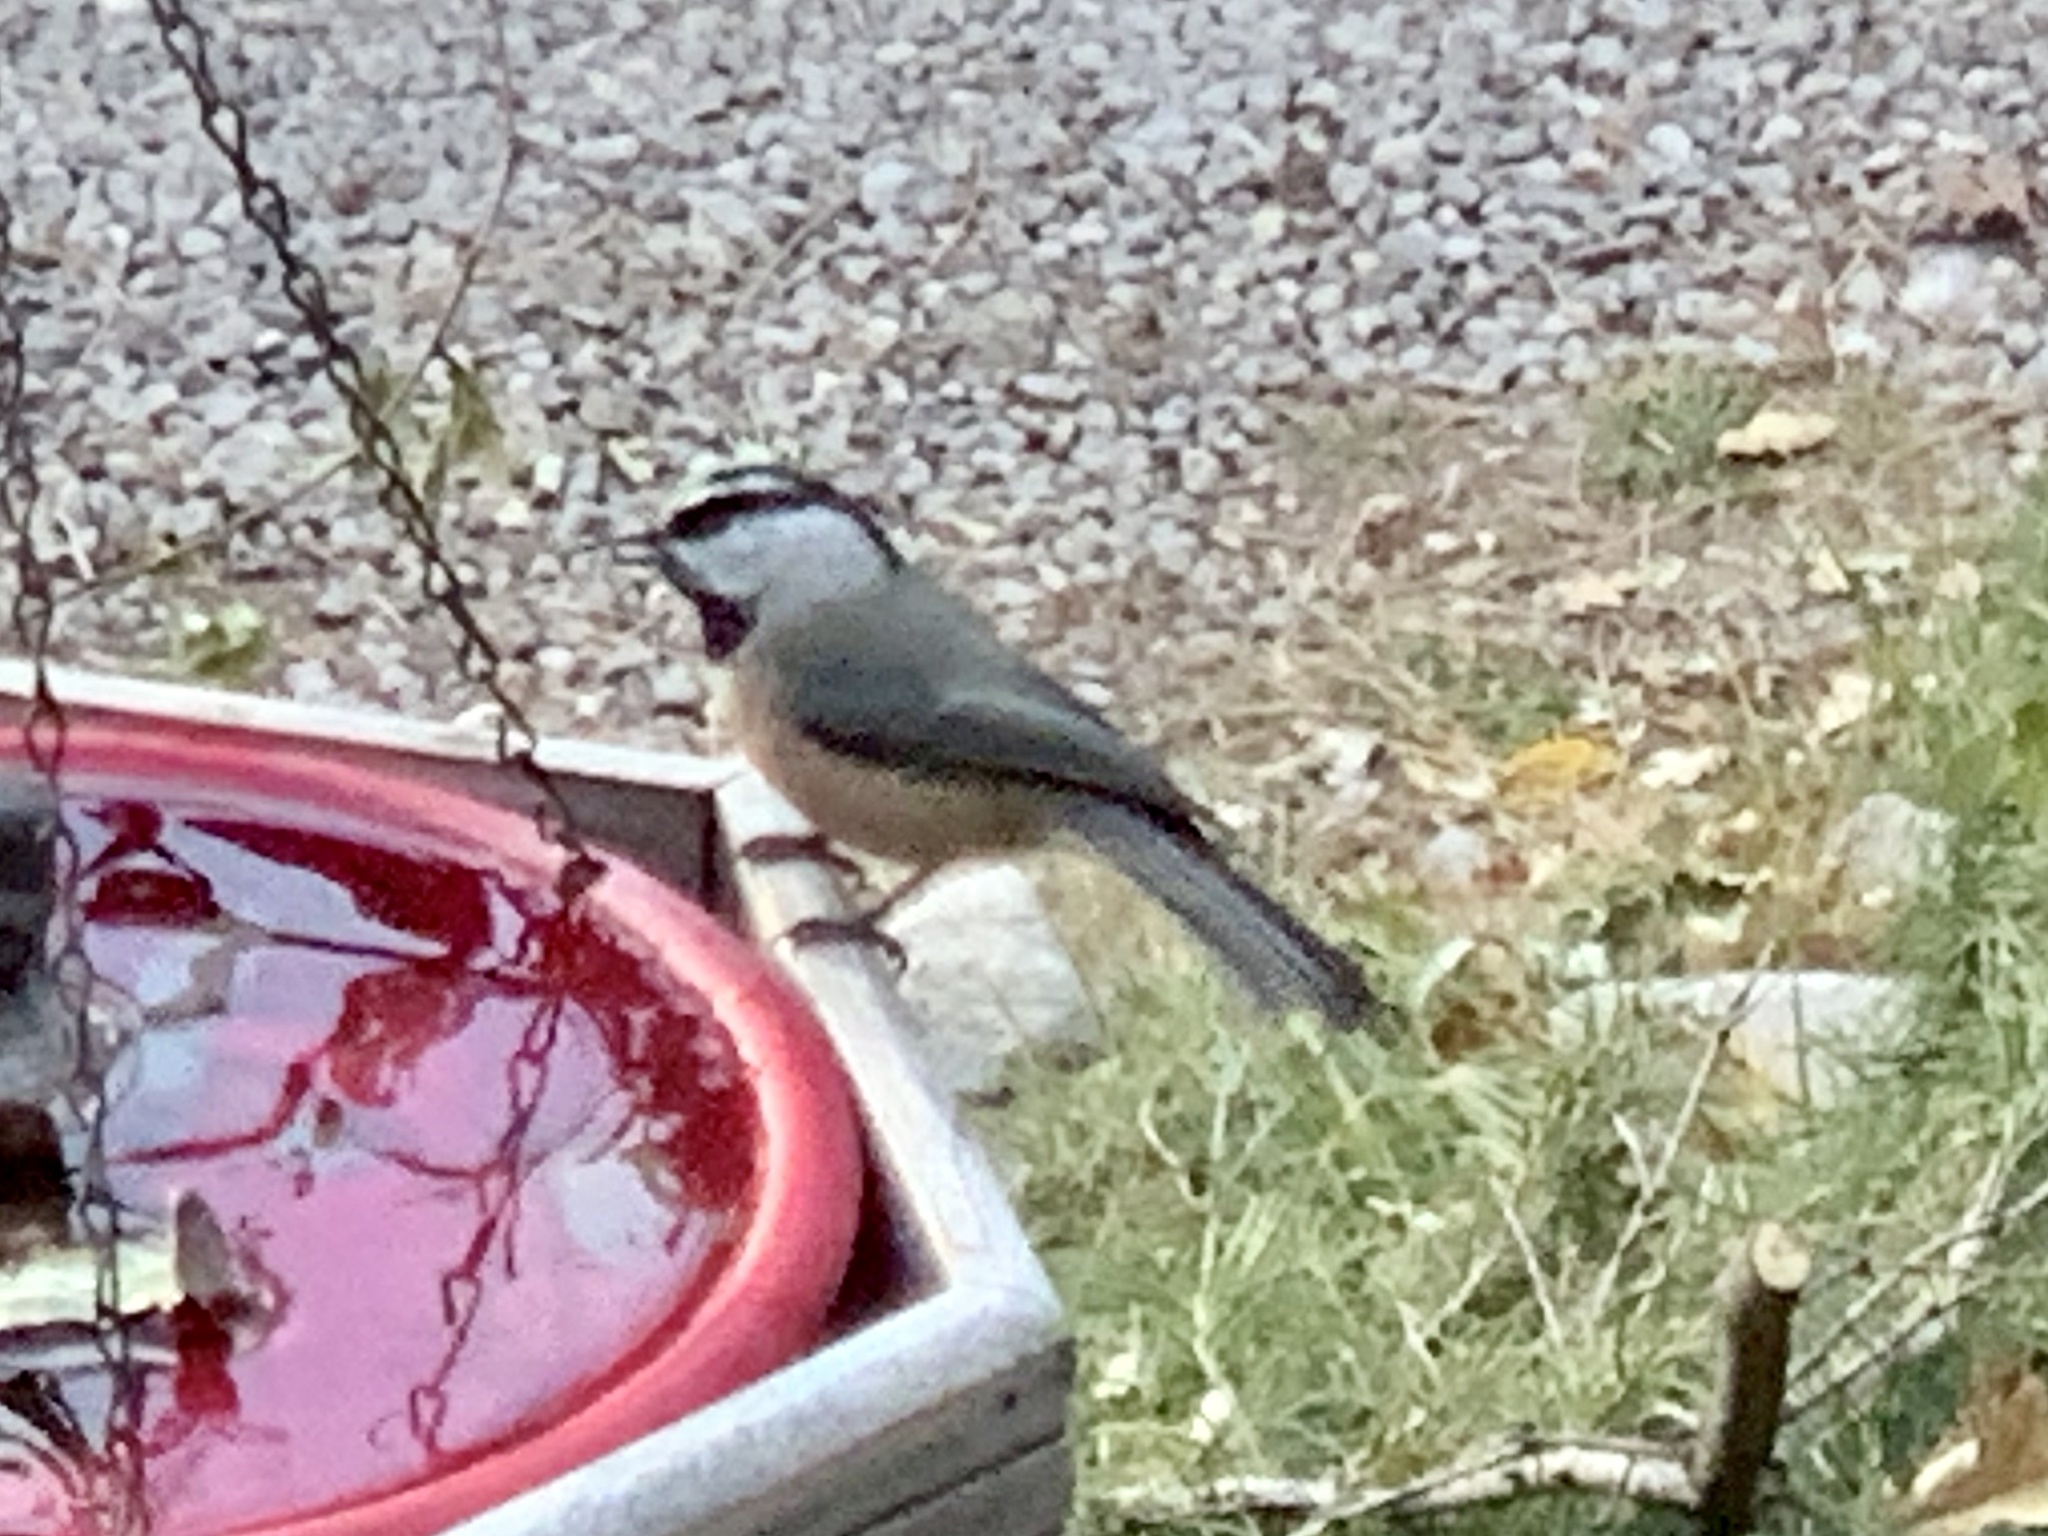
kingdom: Animalia
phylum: Chordata
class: Aves
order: Passeriformes
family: Paridae
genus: Poecile
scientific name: Poecile gambeli
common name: Mountain chickadee
